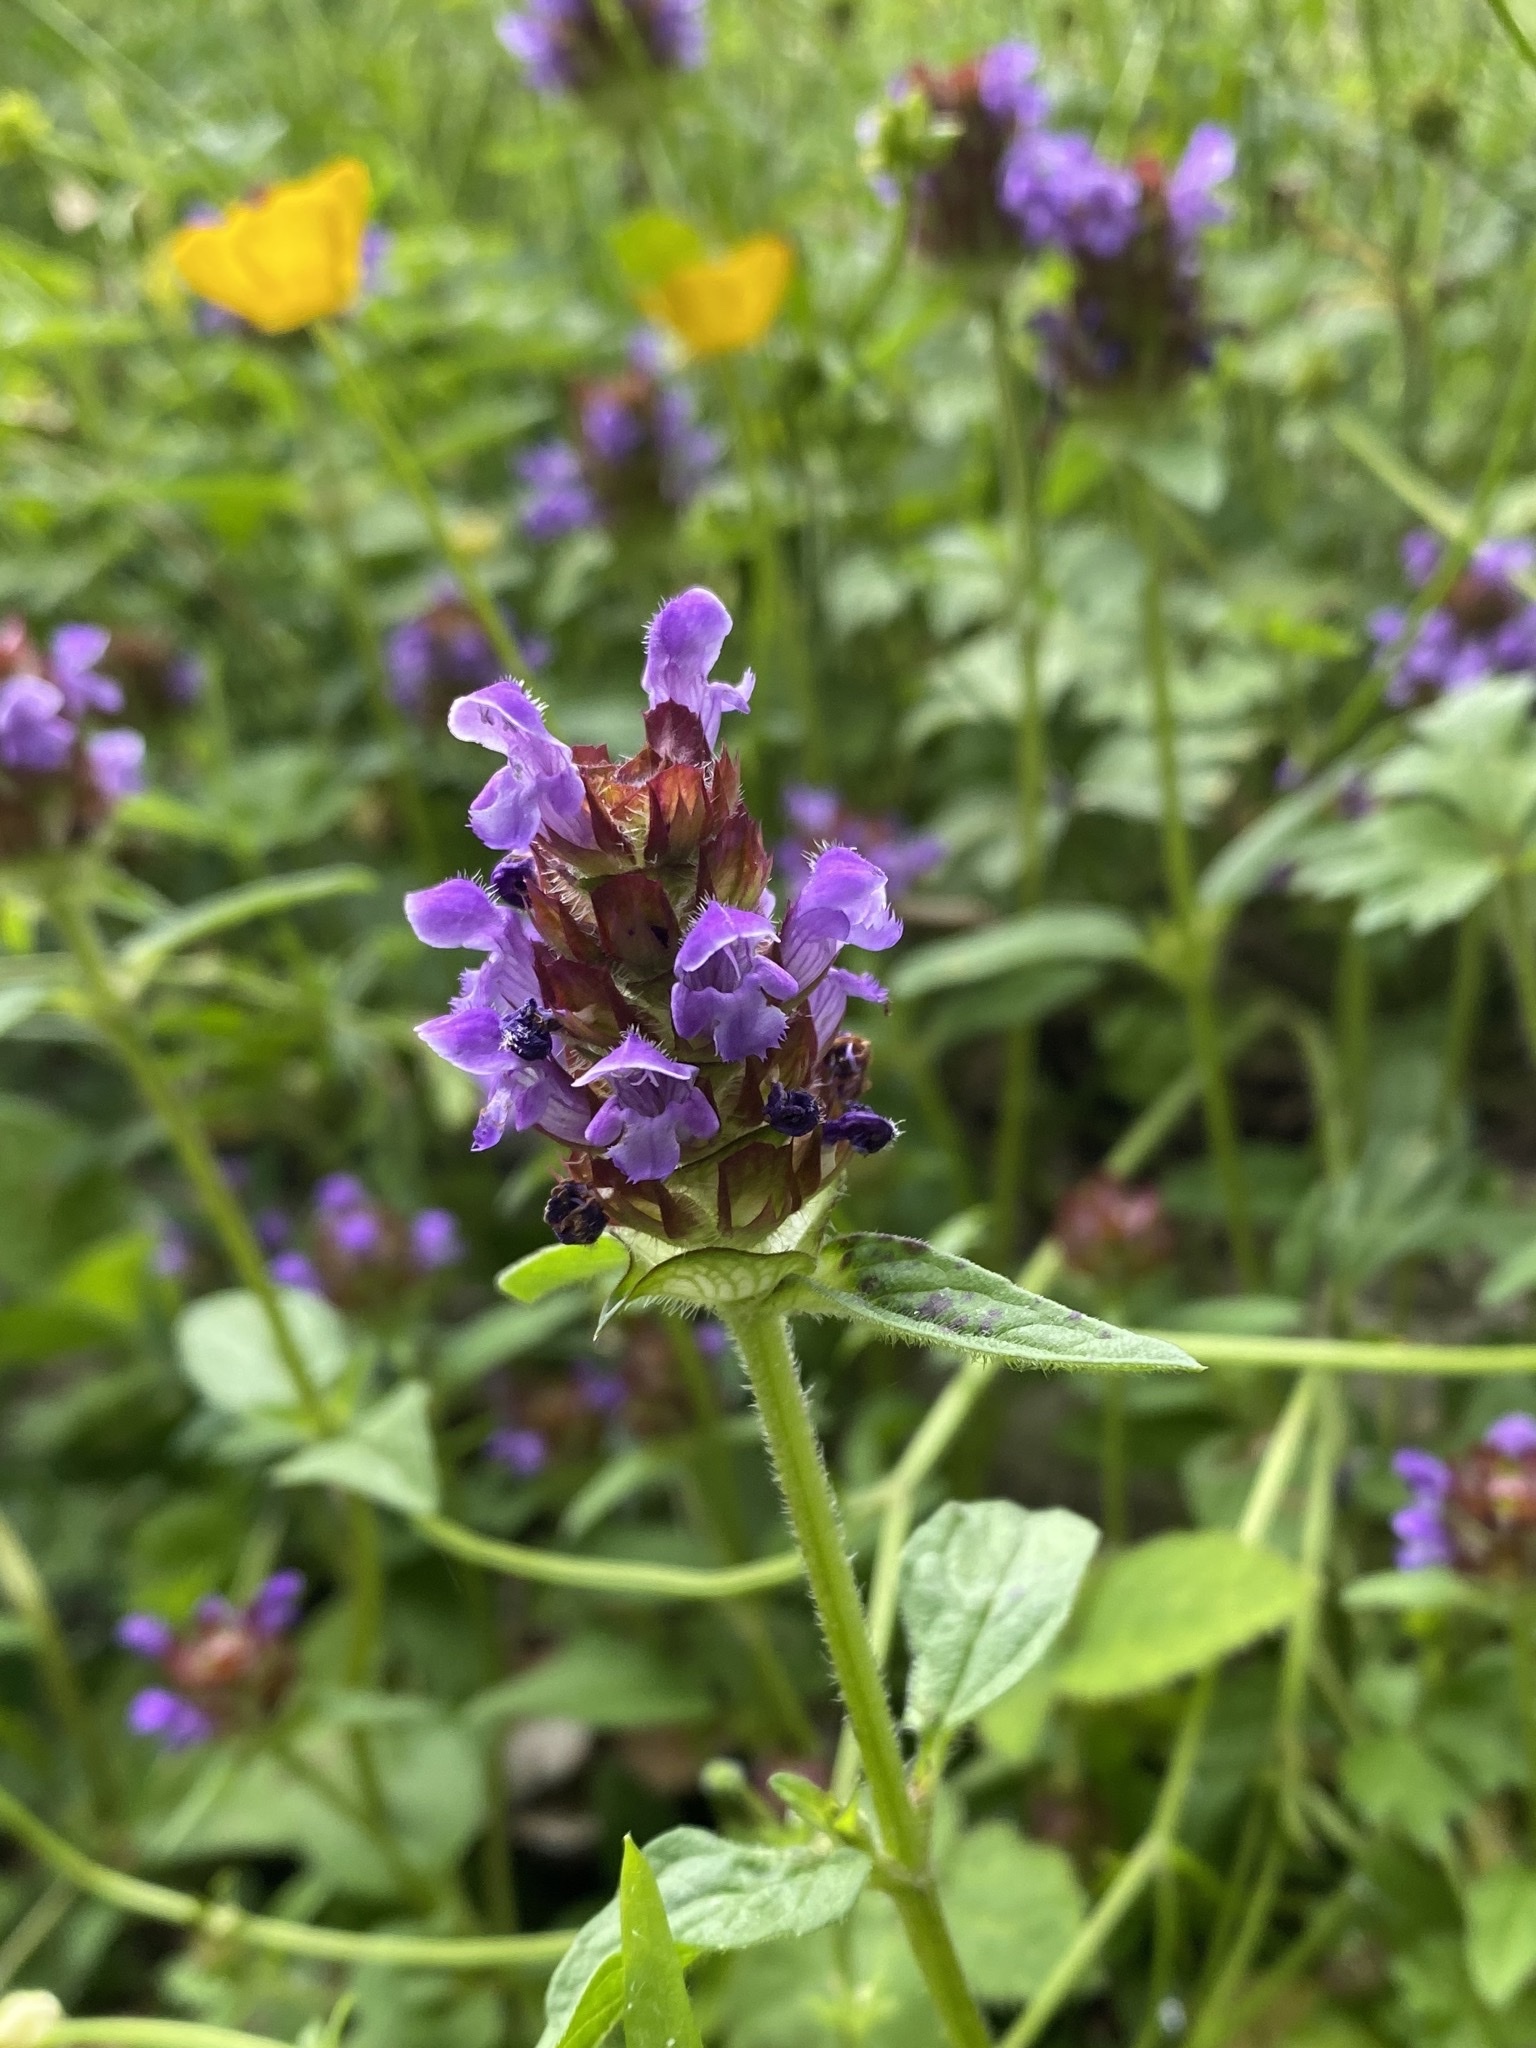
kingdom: Plantae
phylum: Tracheophyta
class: Magnoliopsida
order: Lamiales
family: Lamiaceae
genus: Prunella
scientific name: Prunella vulgaris
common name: Heal-all
